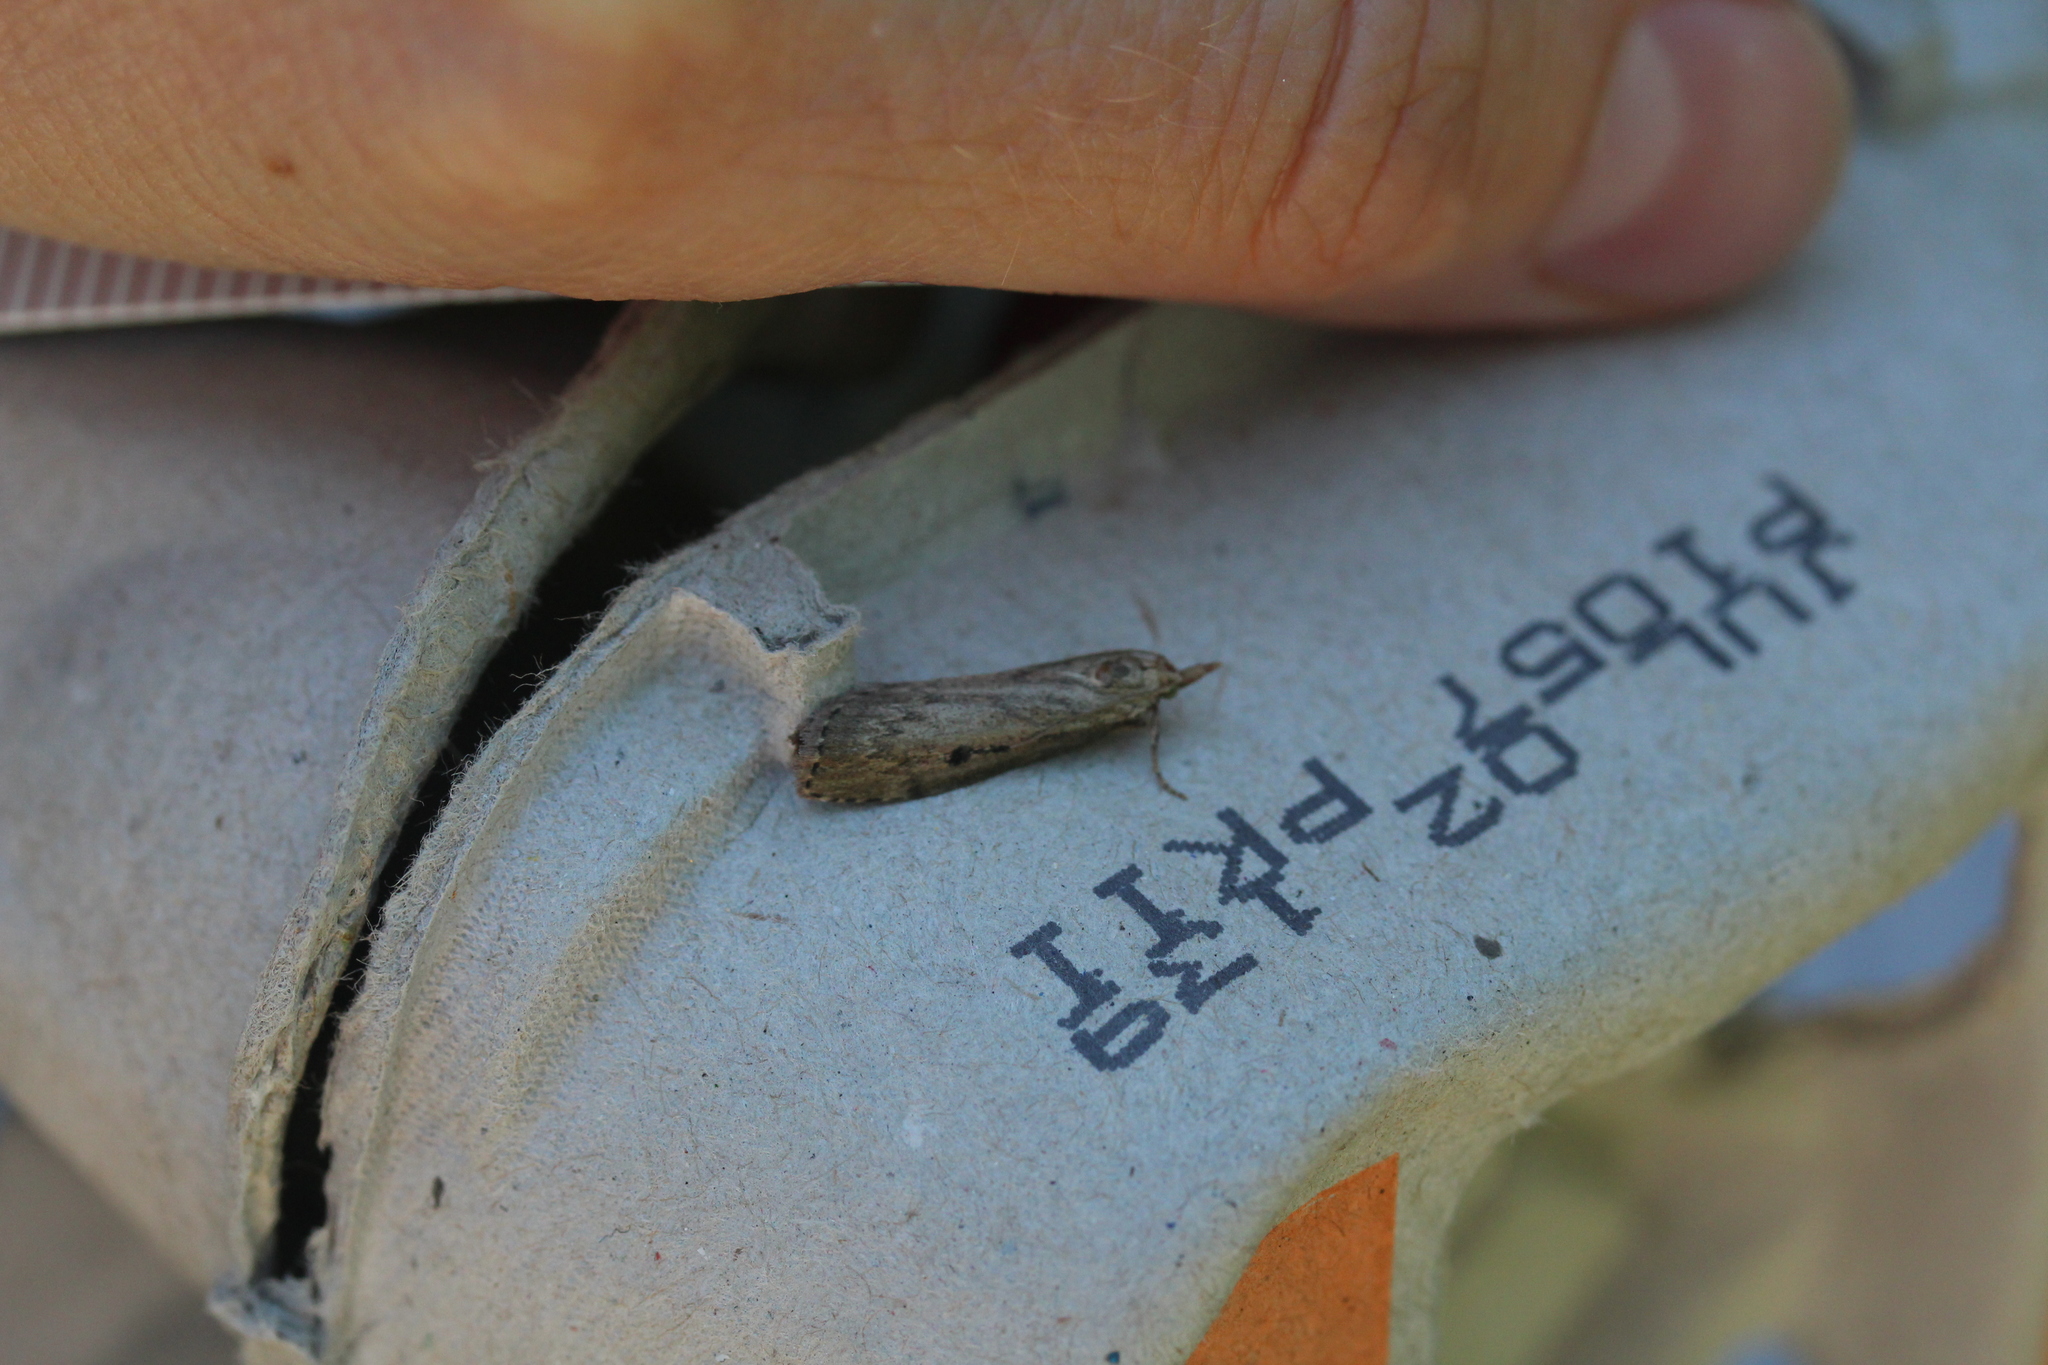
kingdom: Animalia
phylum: Arthropoda
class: Insecta
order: Lepidoptera
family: Pyralidae
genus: Aphomia
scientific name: Aphomia sociella
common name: Bee moth
